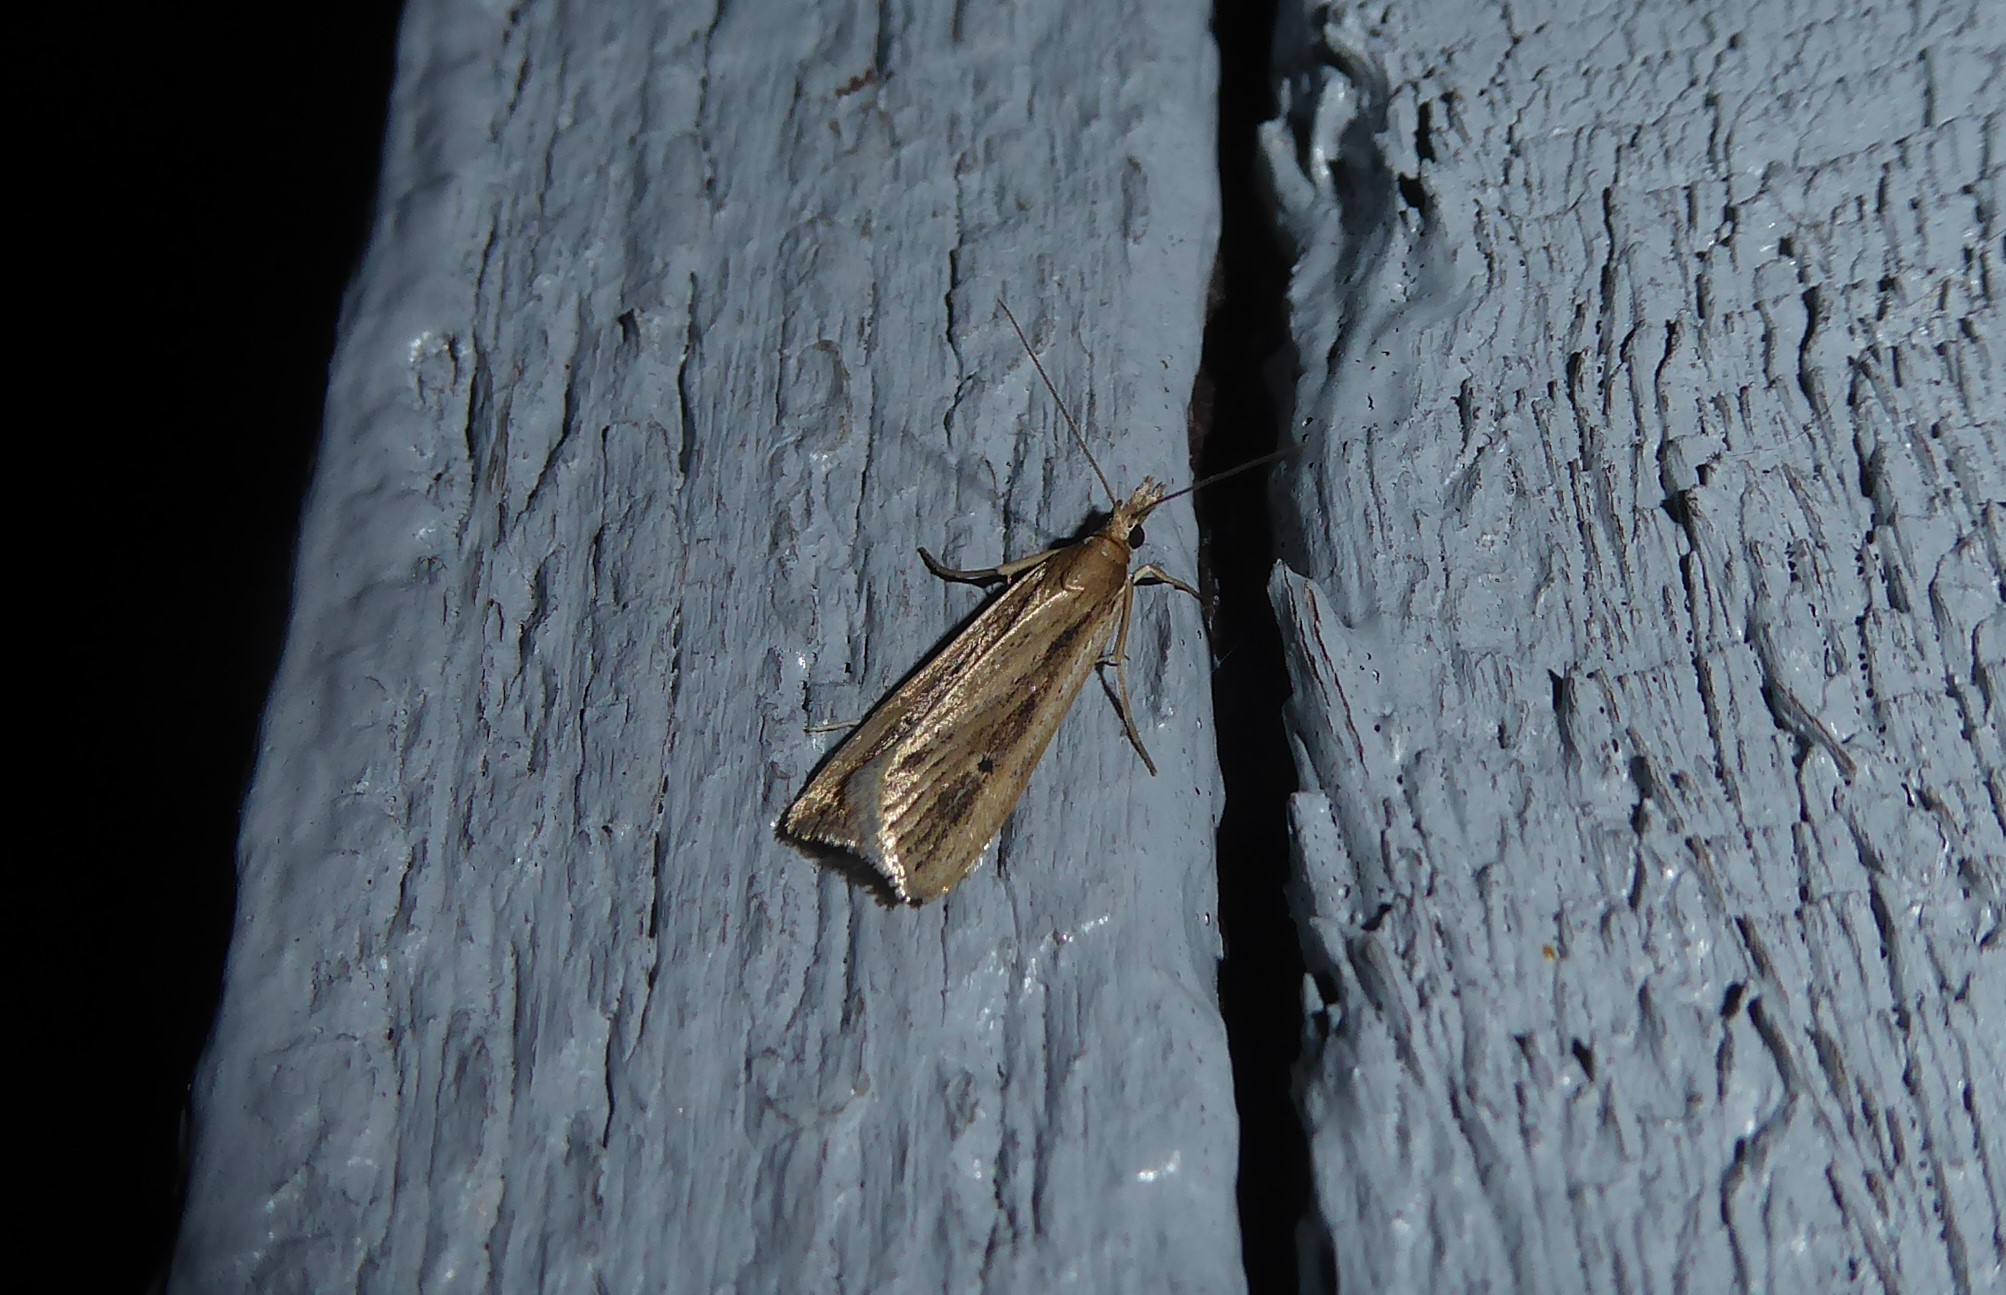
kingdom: Animalia
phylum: Arthropoda
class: Insecta
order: Lepidoptera
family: Crambidae
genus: Eudonia
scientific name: Eudonia sabulosella
